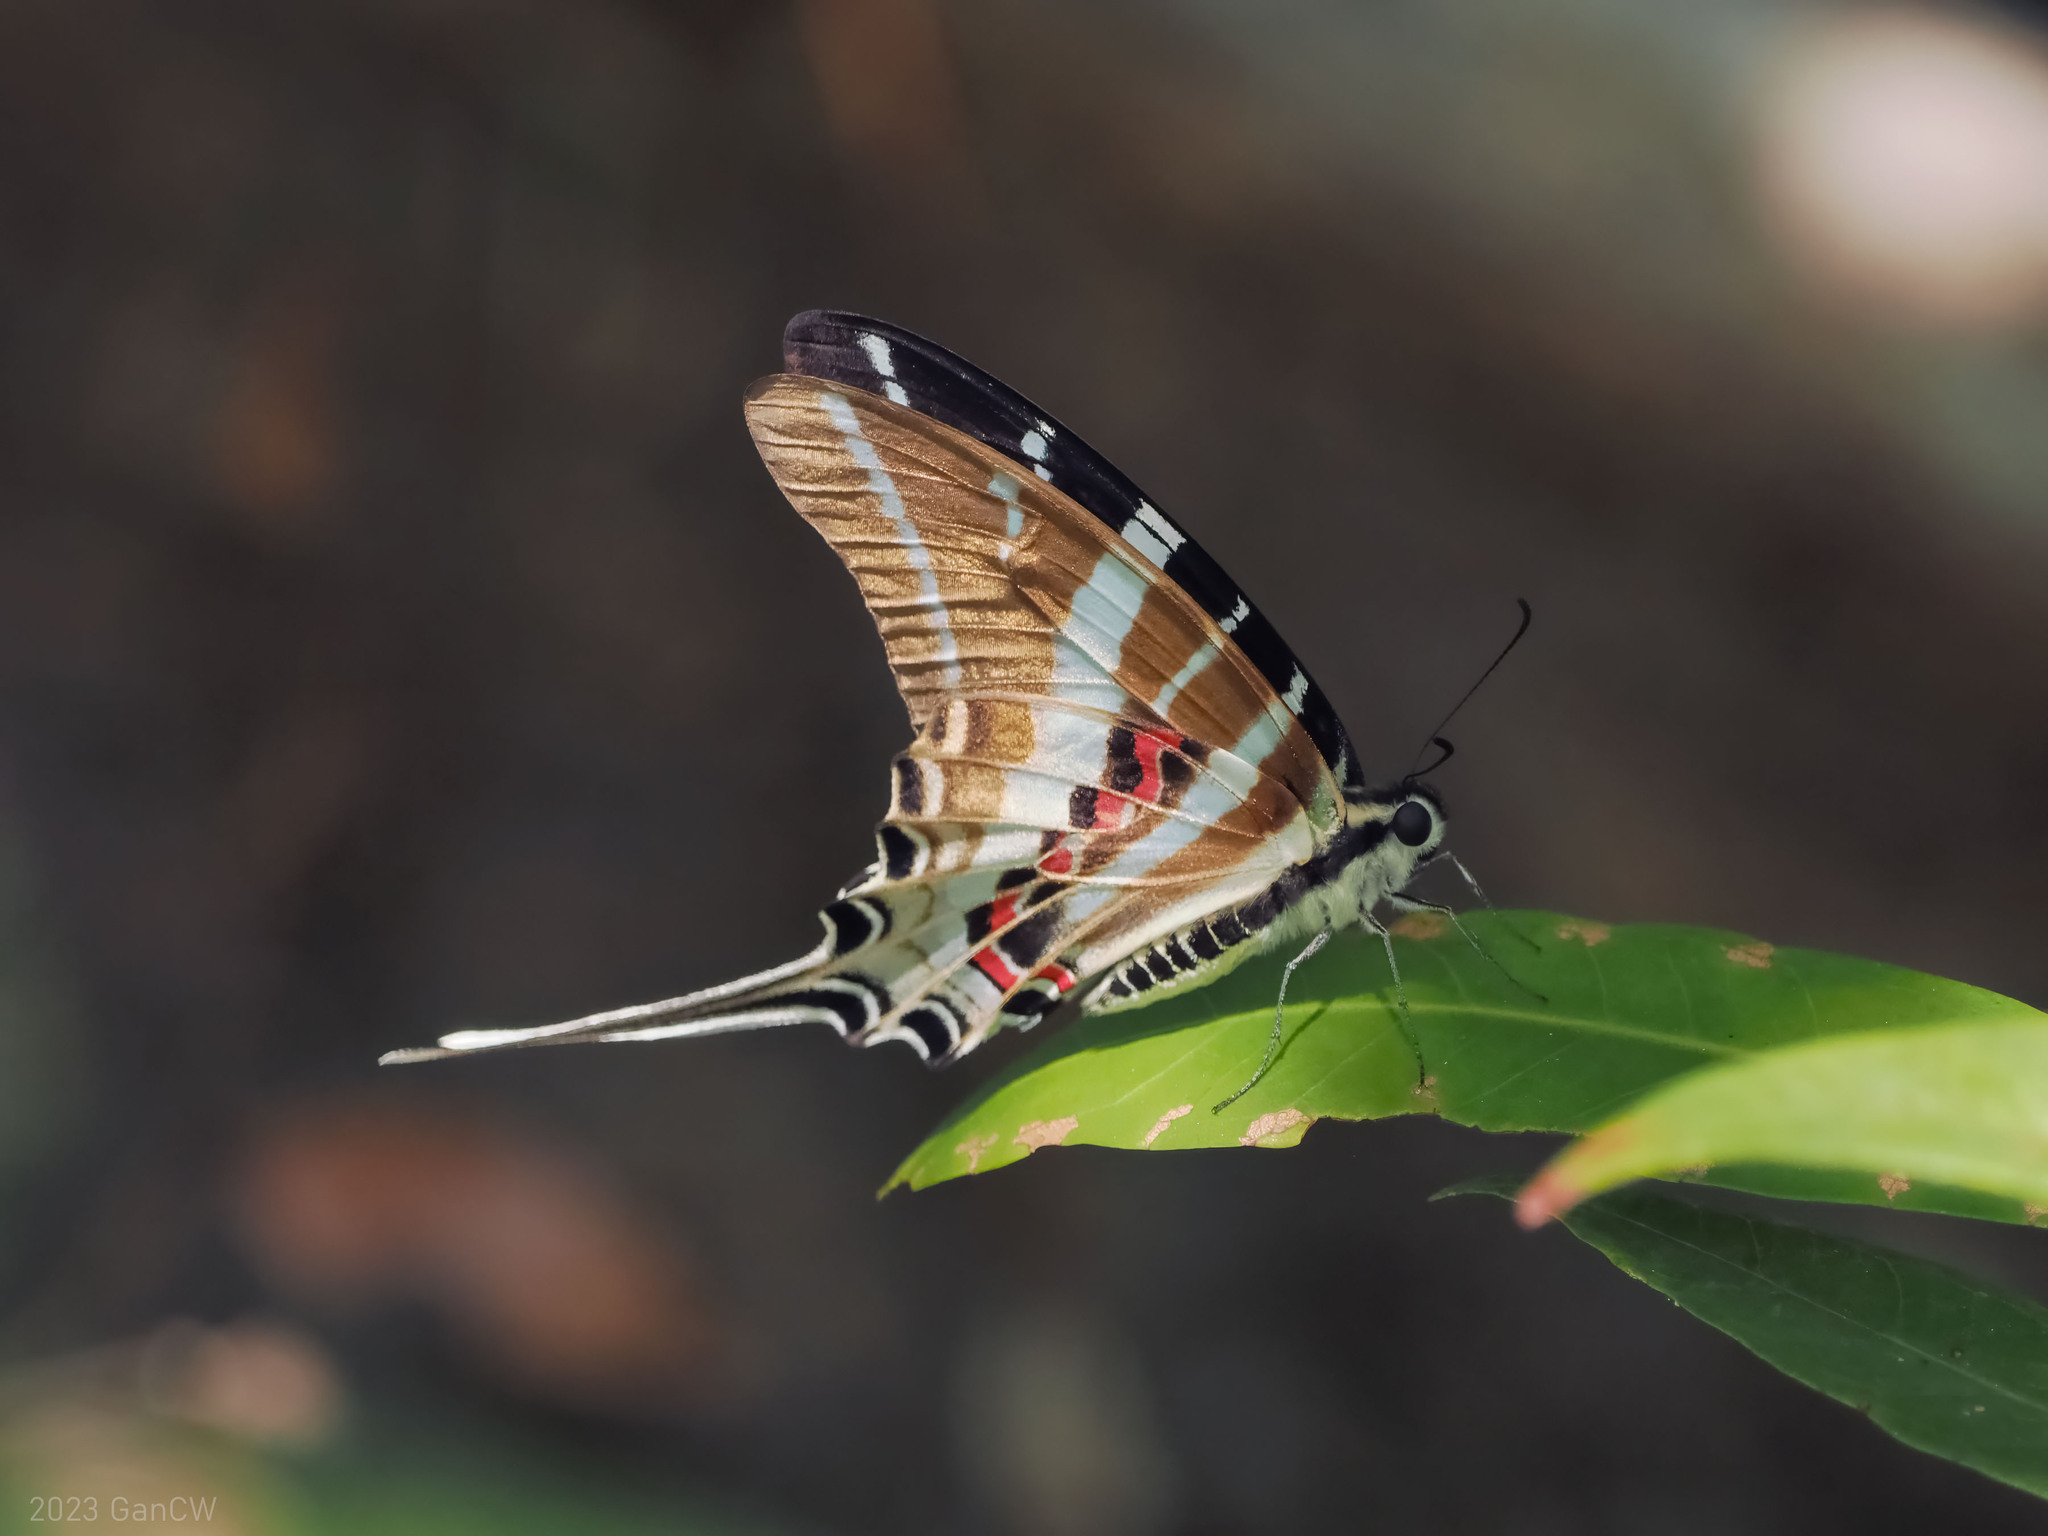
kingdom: Animalia
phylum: Arthropoda
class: Insecta
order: Lepidoptera
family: Papilionidae
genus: Graphium
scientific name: Graphium rhesus
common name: Monkey swordtail
